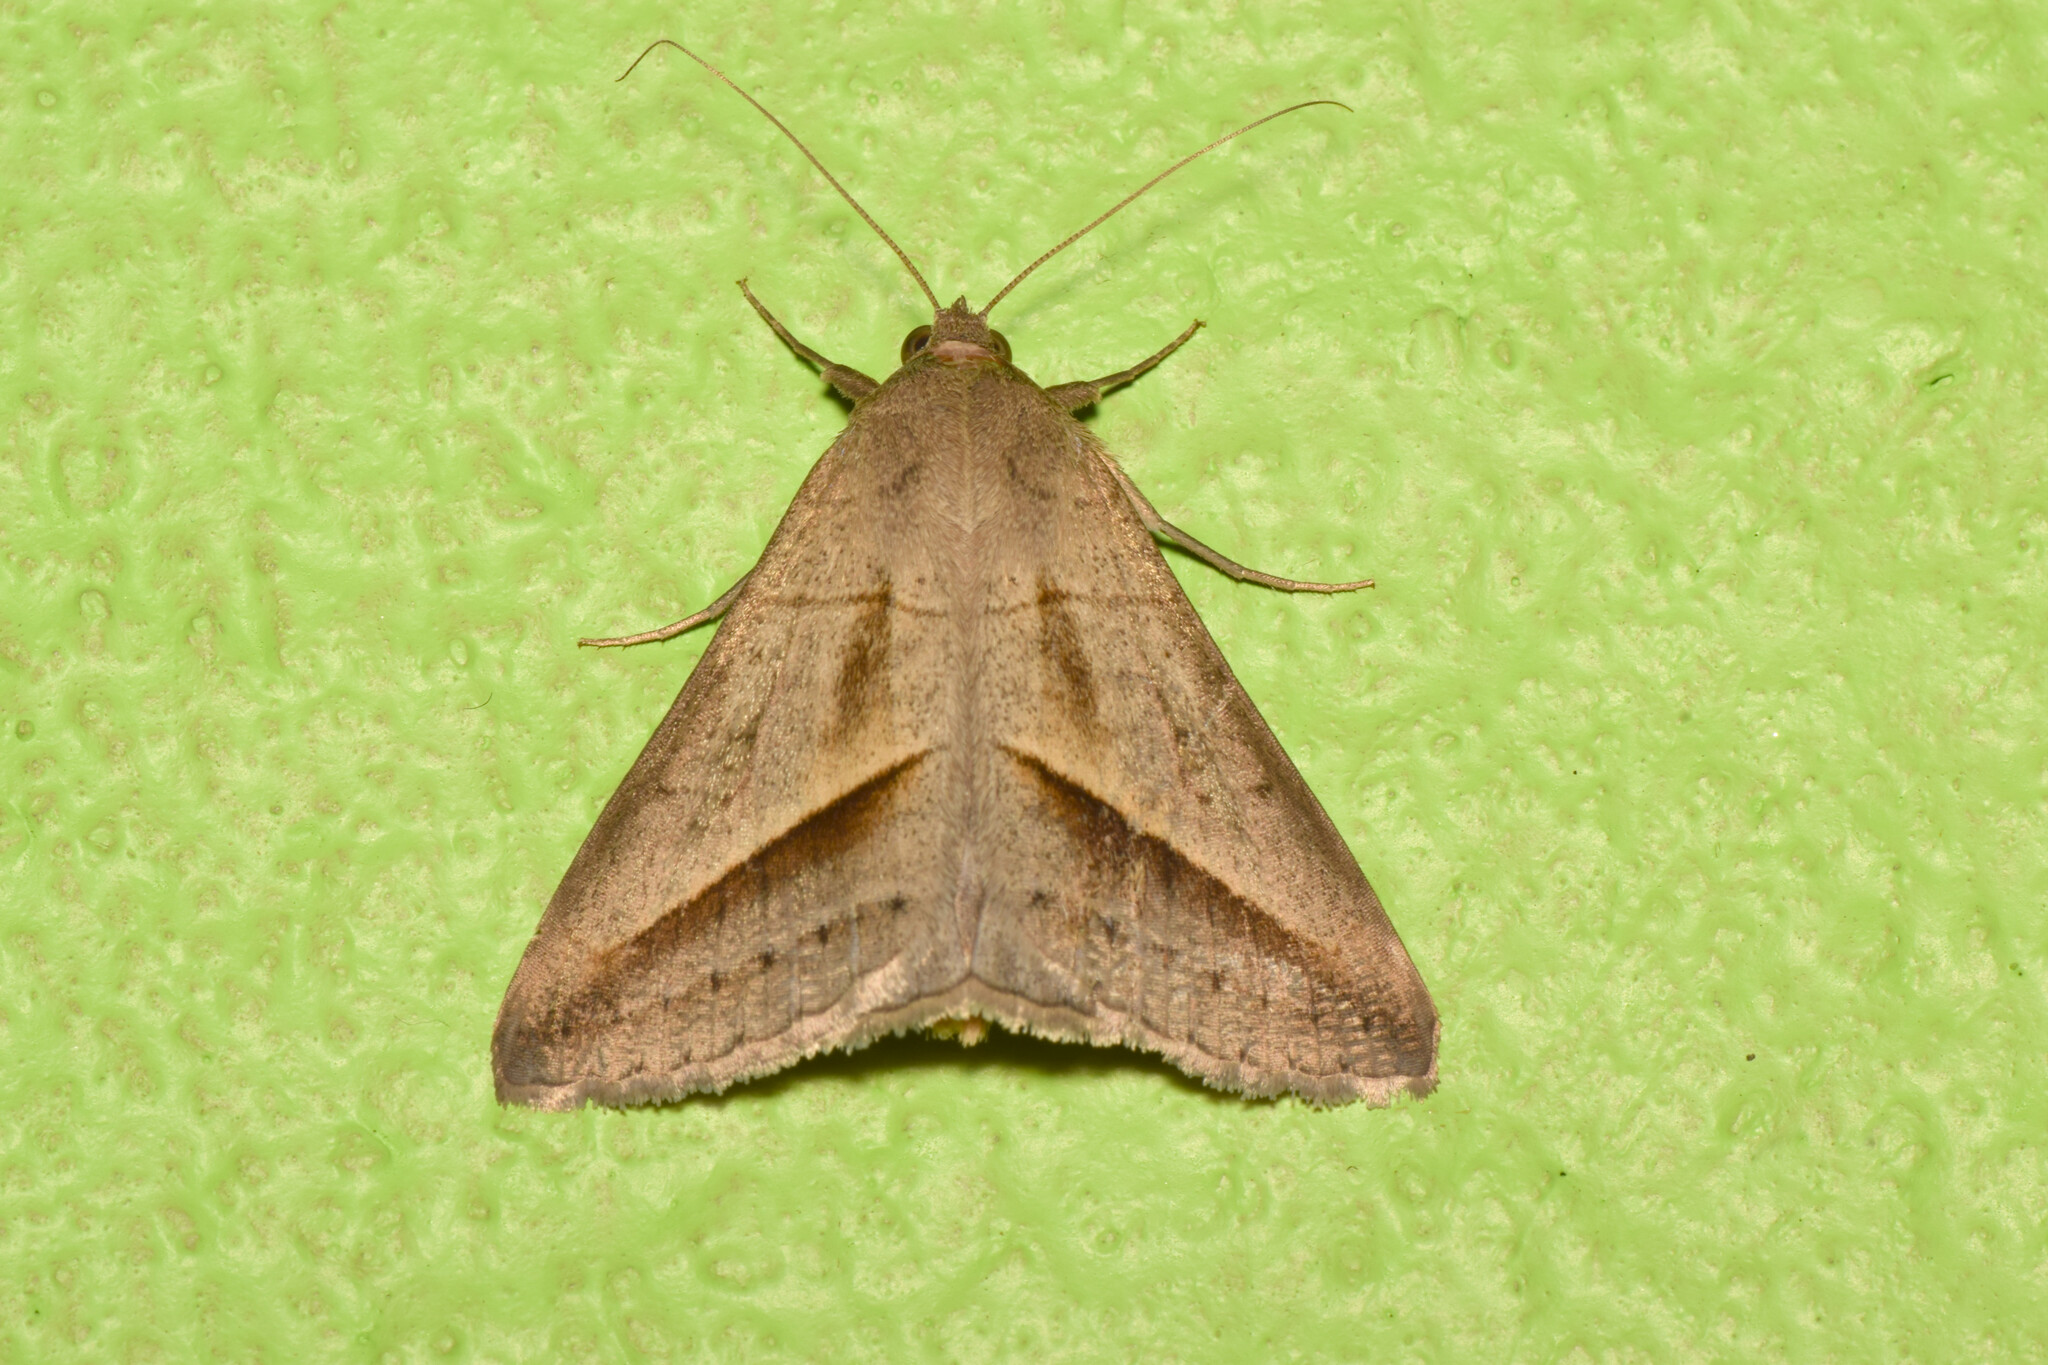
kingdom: Animalia
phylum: Arthropoda
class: Insecta
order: Lepidoptera
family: Erebidae
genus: Mocis
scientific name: Mocis frugalis
